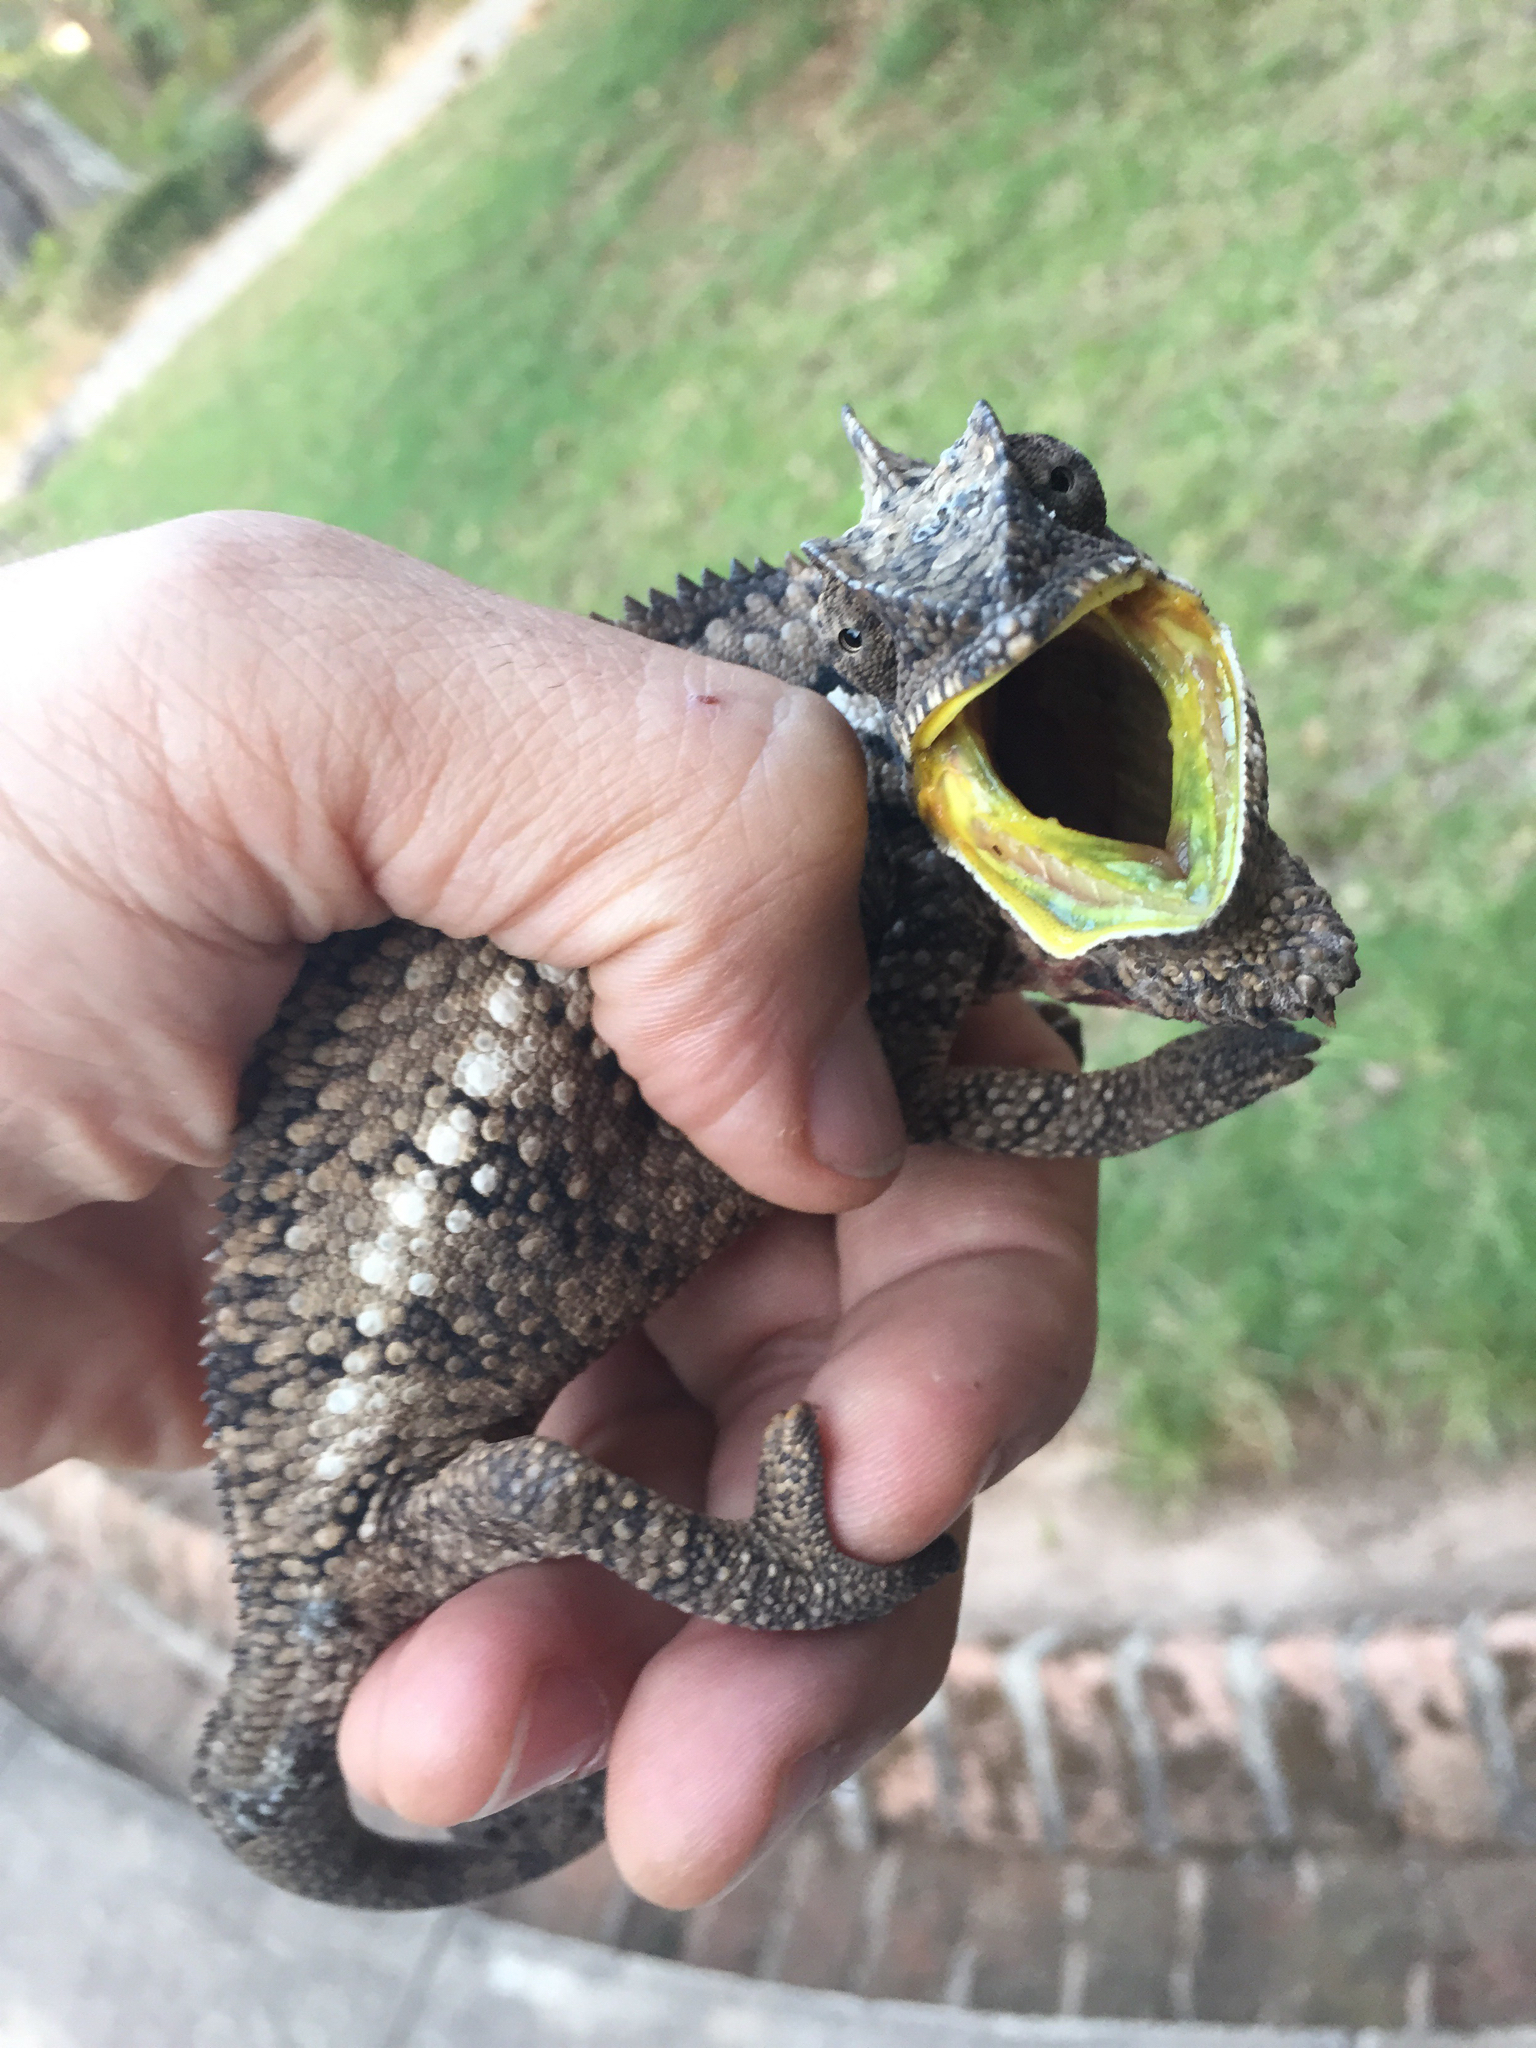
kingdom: Animalia
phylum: Chordata
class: Squamata
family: Chamaeleonidae
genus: Furcifer
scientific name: Furcifer oustaleti
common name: Oustalet's chameleon
